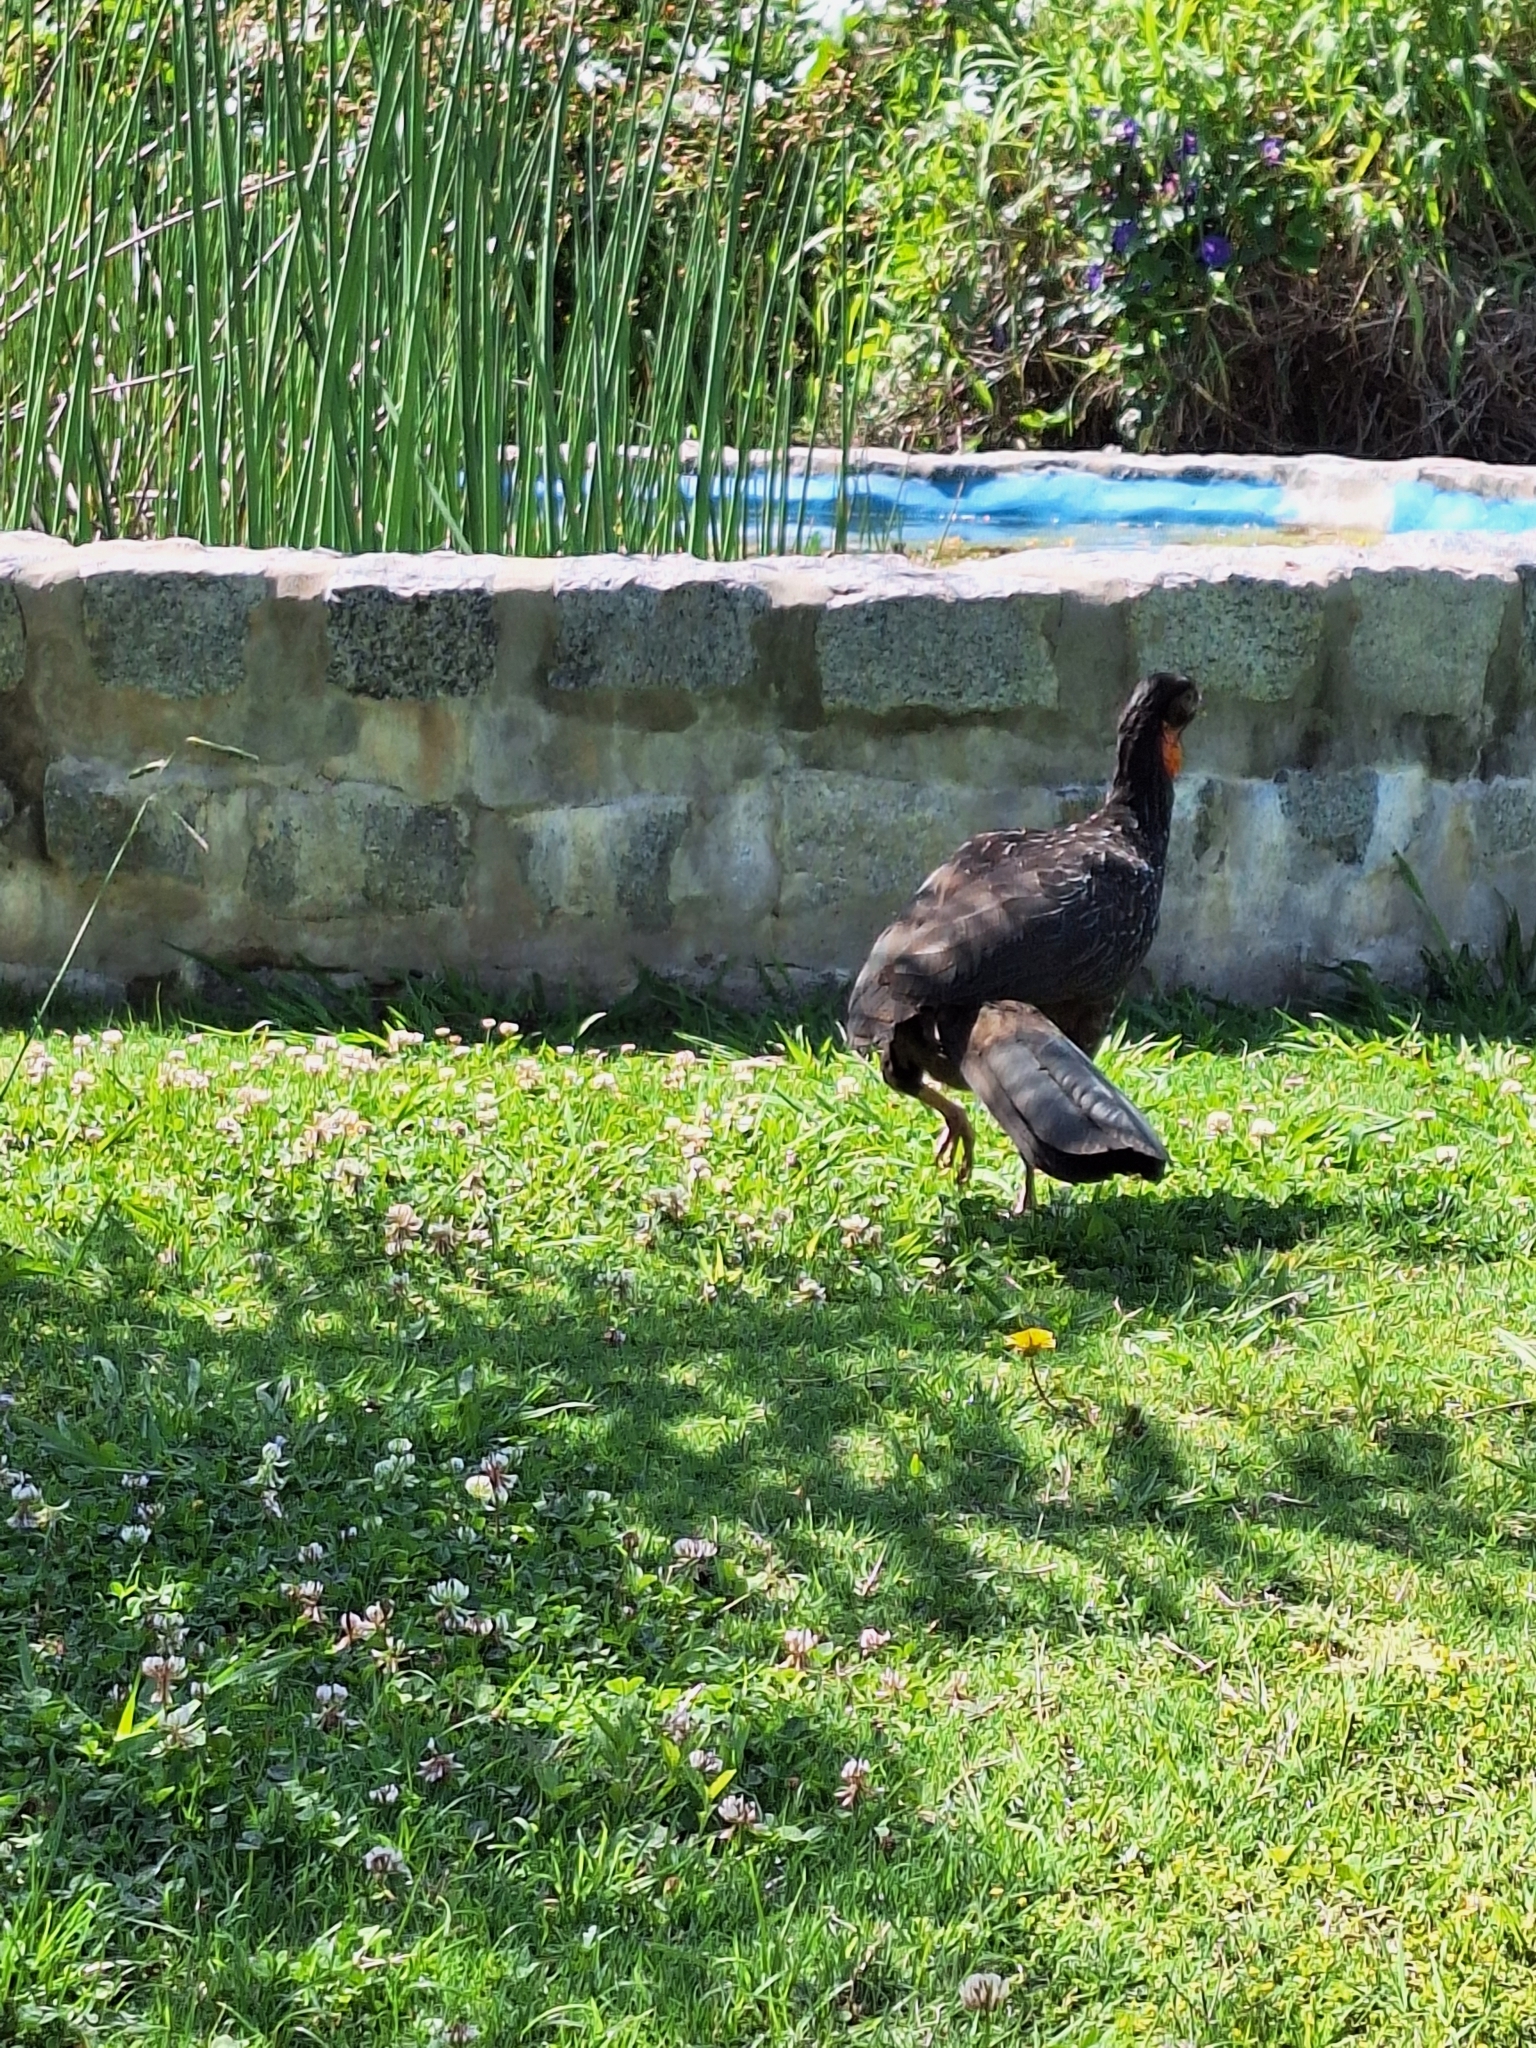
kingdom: Animalia
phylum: Chordata
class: Aves
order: Galliformes
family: Cracidae
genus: Penelope
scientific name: Penelope obscura
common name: Dusky-legged guan
